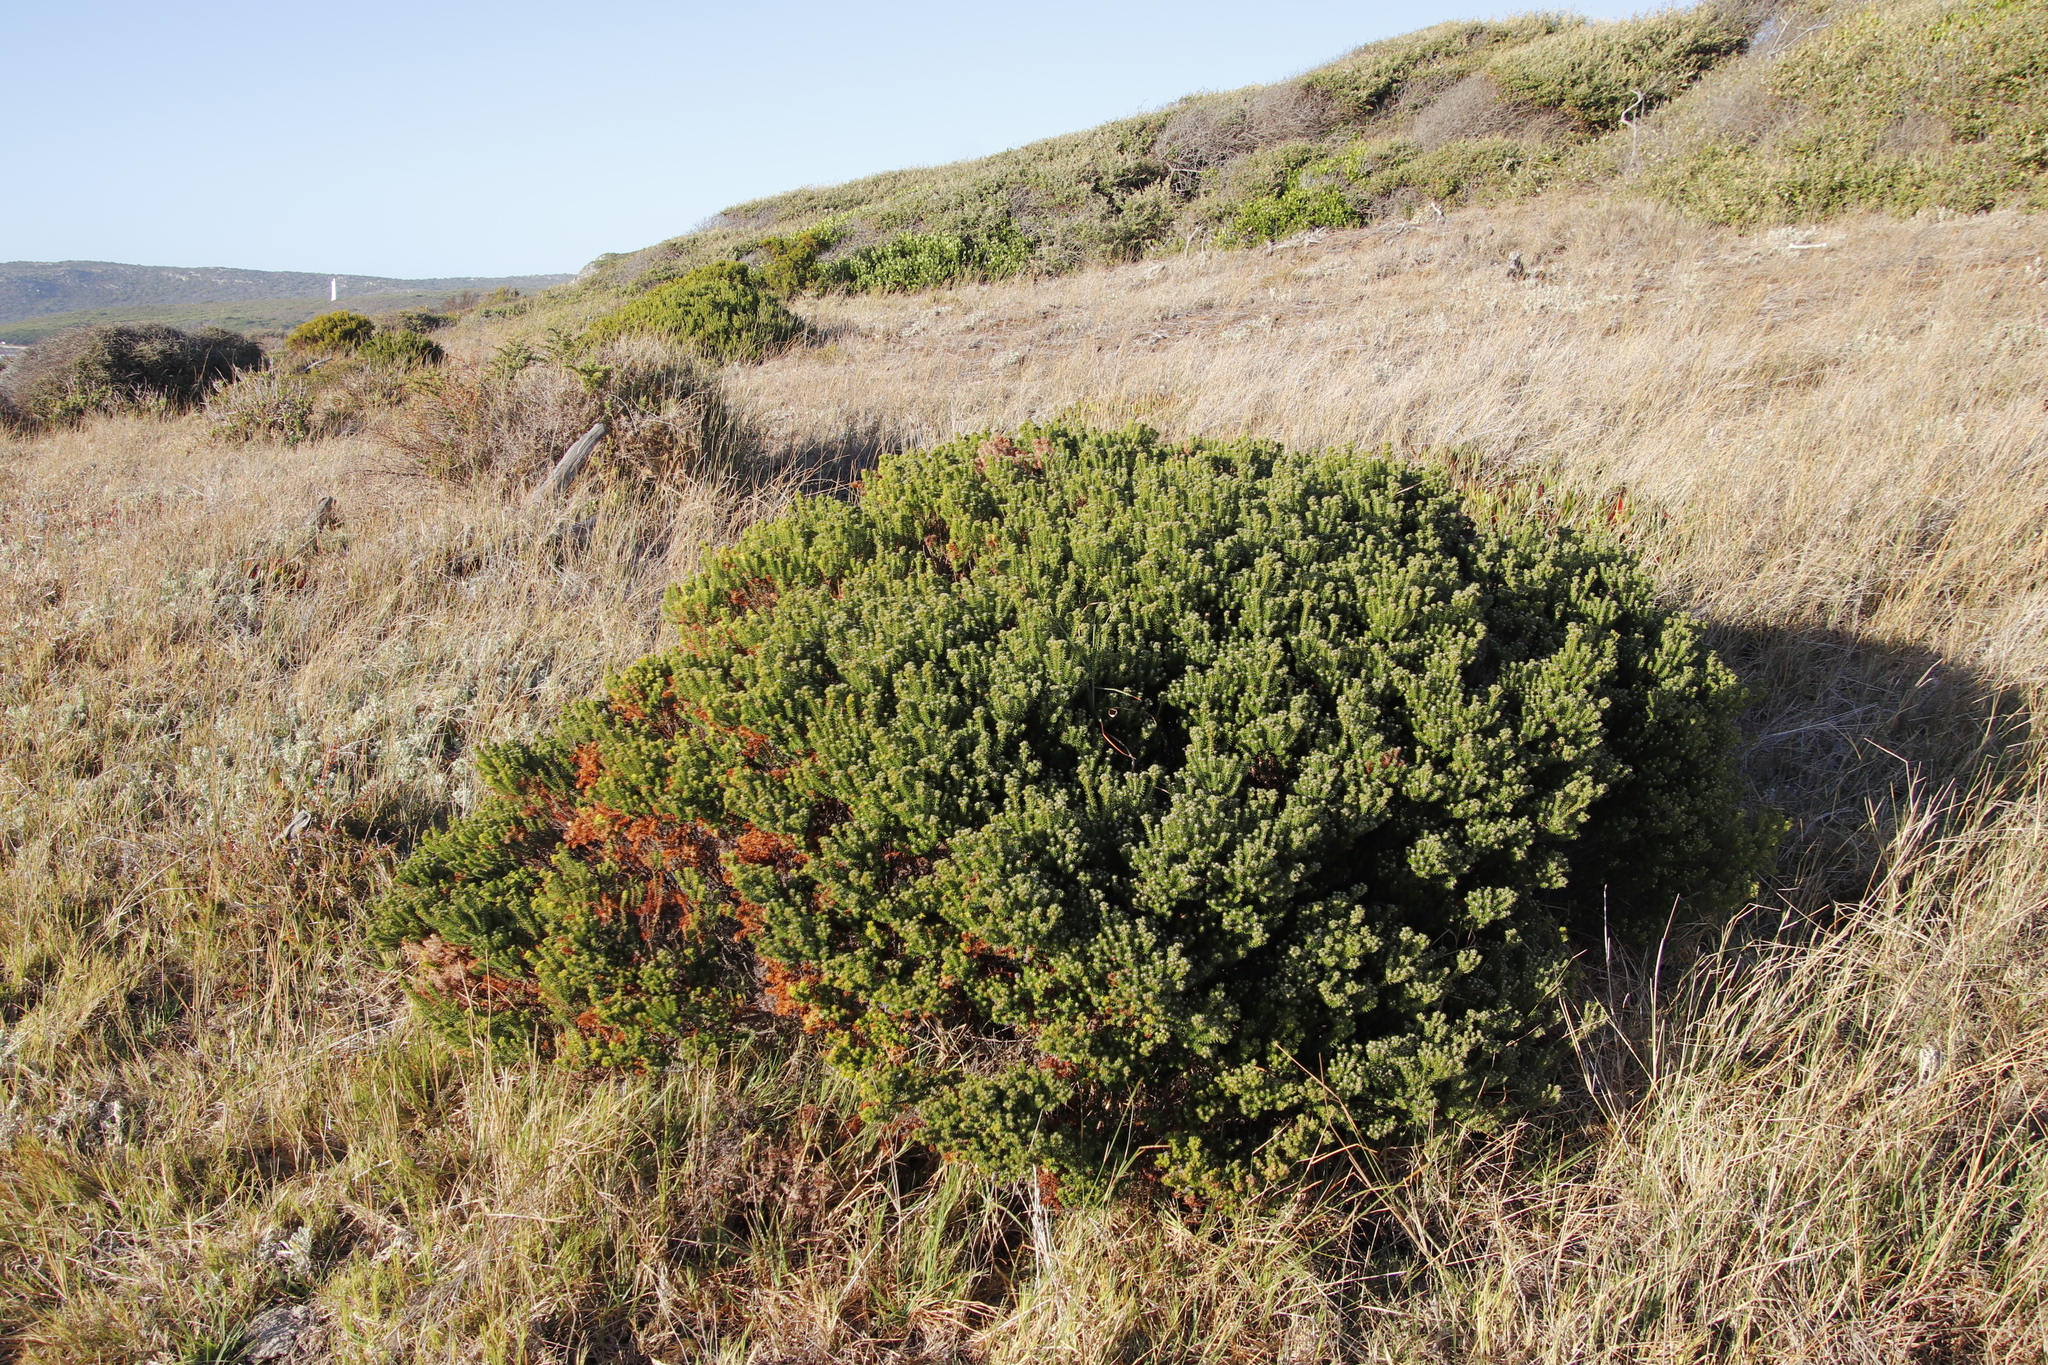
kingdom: Plantae
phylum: Tracheophyta
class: Magnoliopsida
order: Rosales
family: Rhamnaceae
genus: Phylica
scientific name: Phylica ericoides
